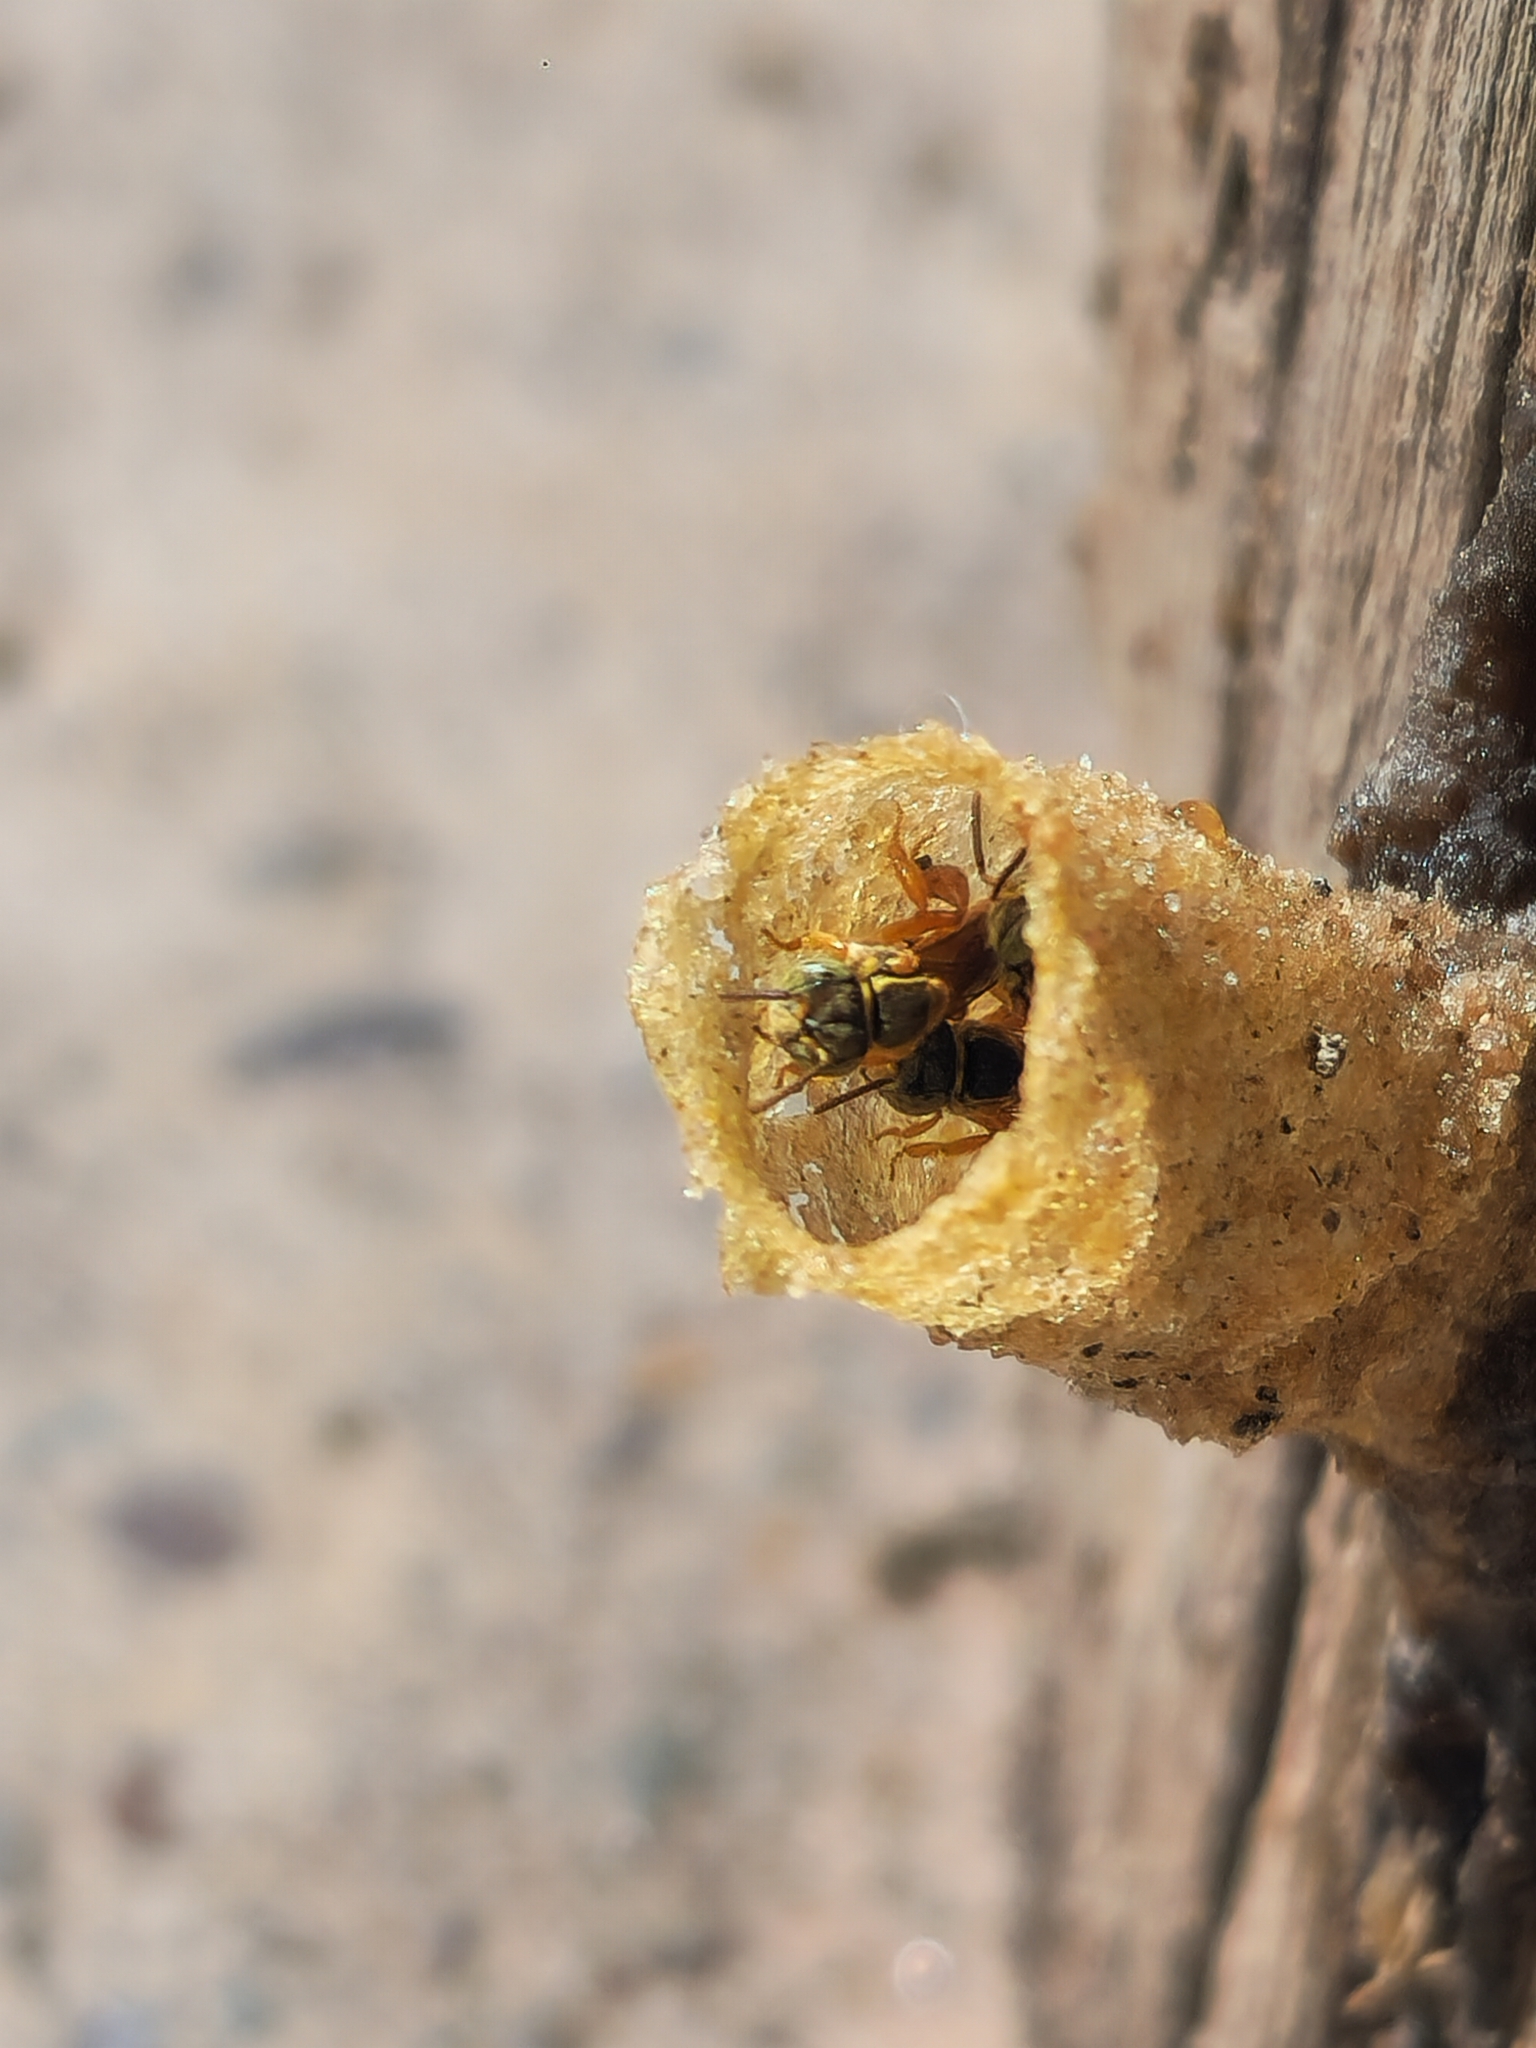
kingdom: Animalia
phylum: Arthropoda
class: Insecta
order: Hymenoptera
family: Apidae
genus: Tetragonisca
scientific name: Tetragonisca fiebrigi
